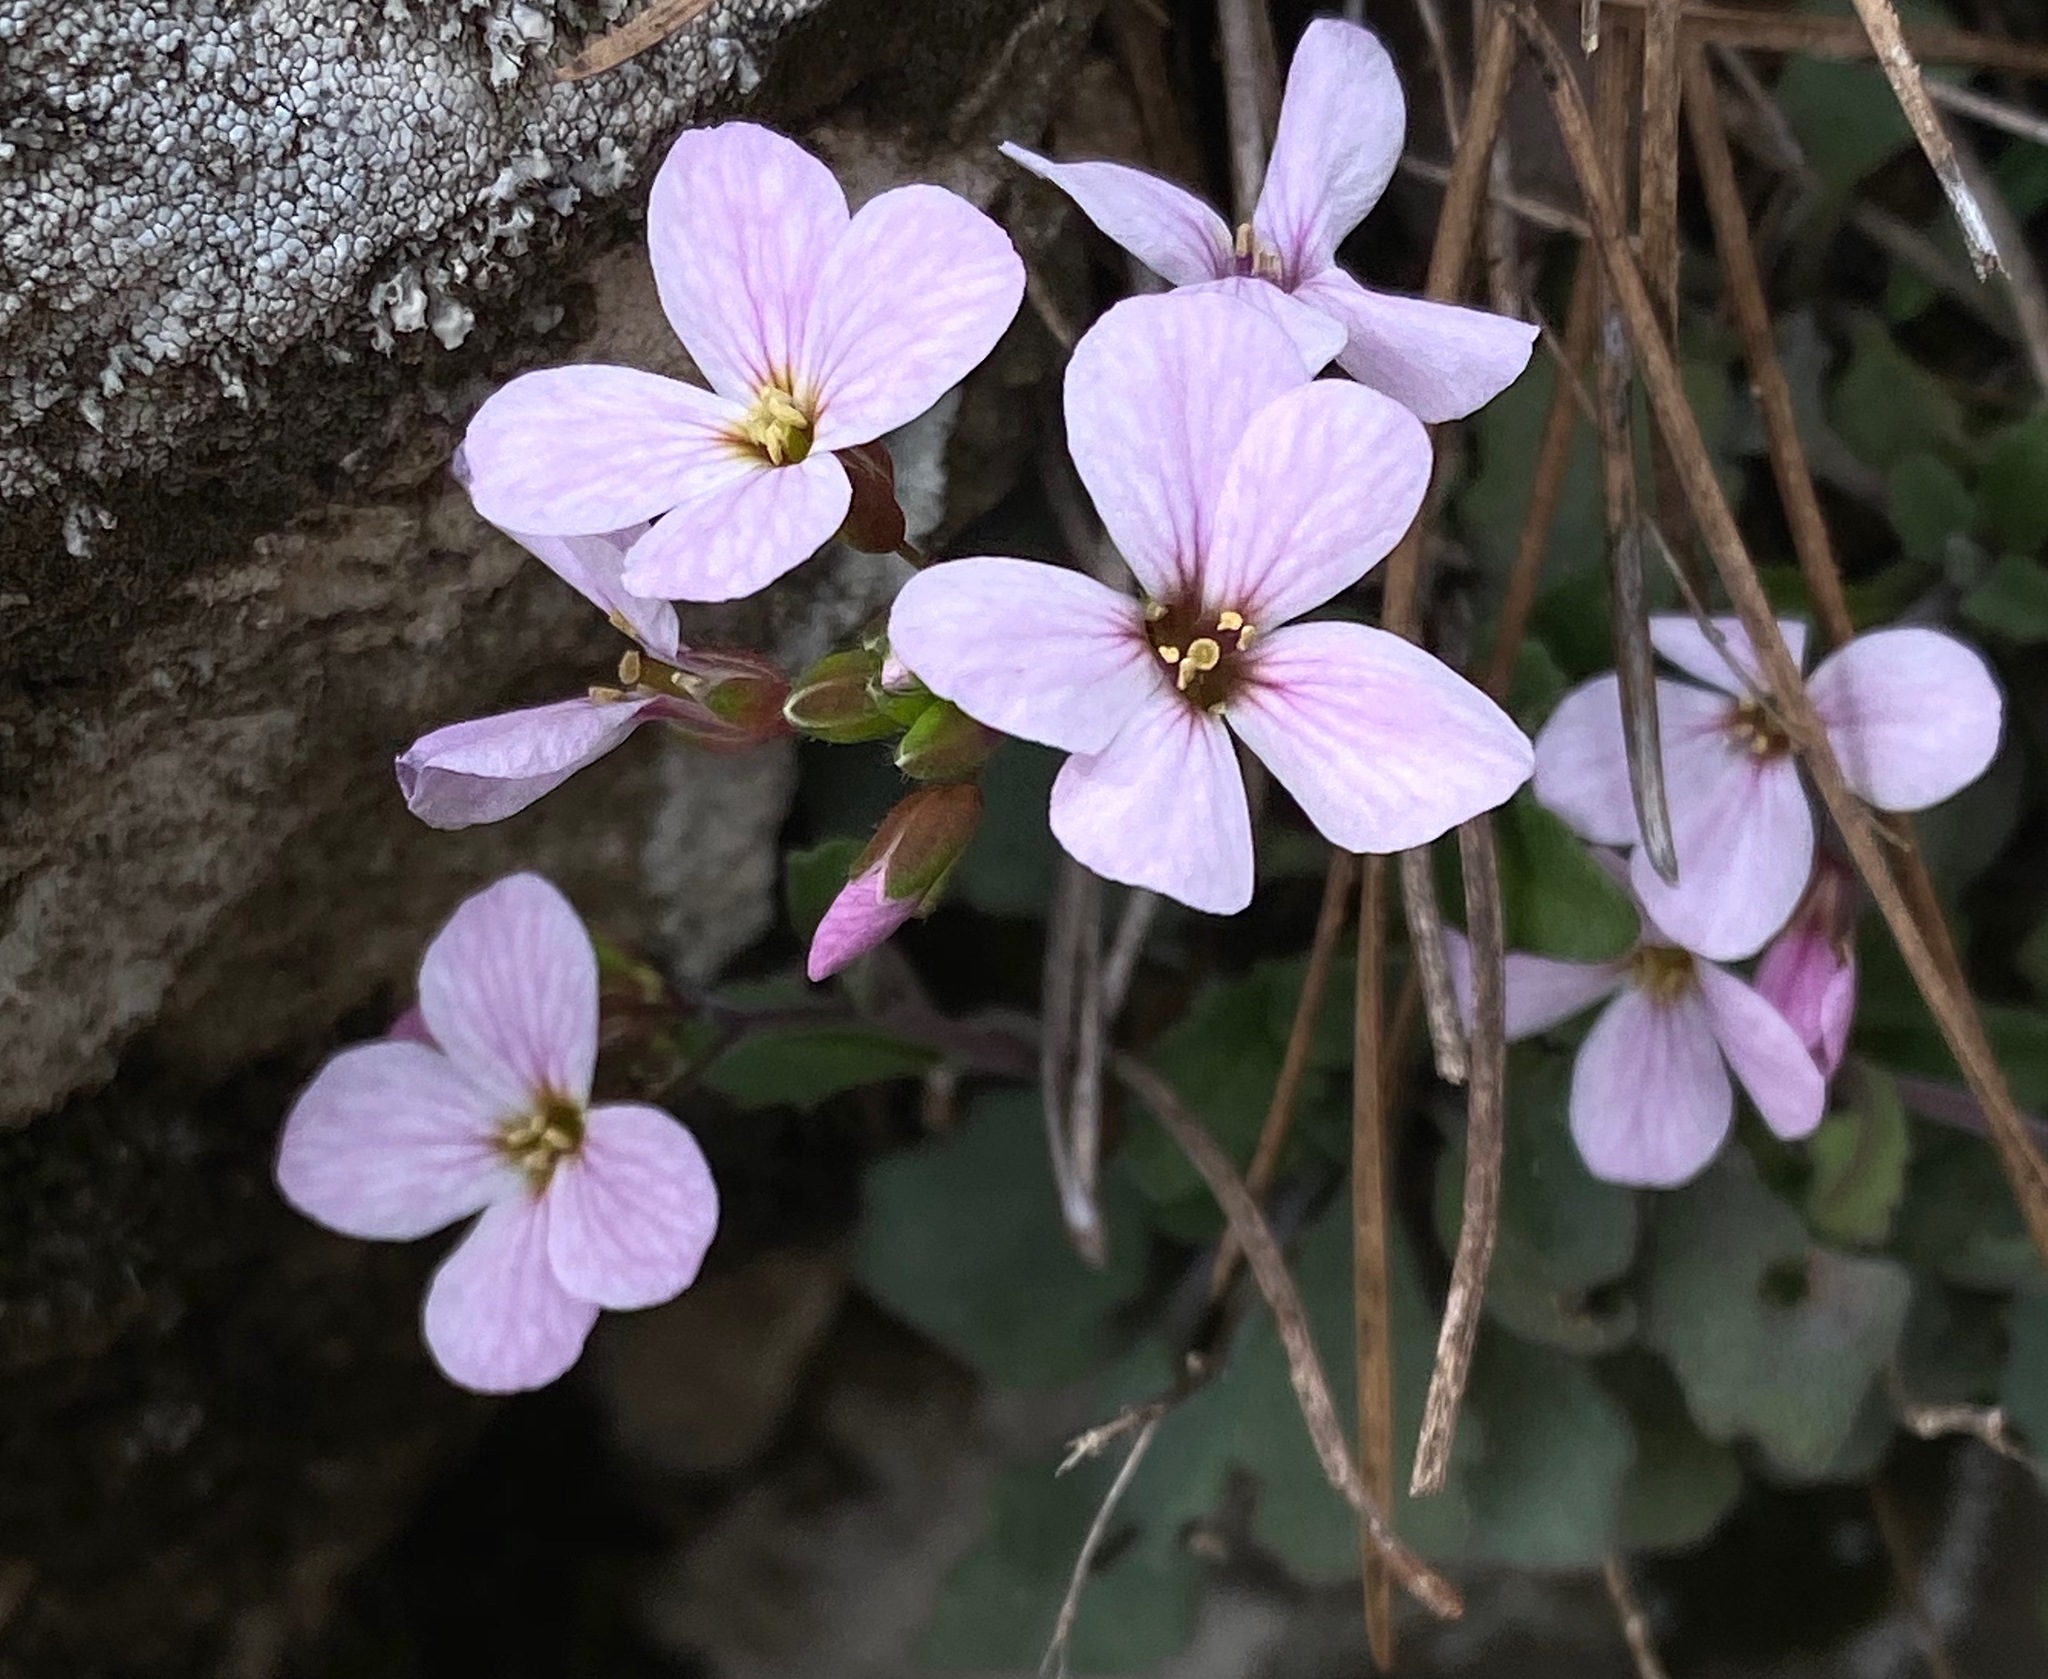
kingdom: Plantae
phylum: Tracheophyta
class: Magnoliopsida
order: Brassicales
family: Brassicaceae
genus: Arabis
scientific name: Arabis purpurea
